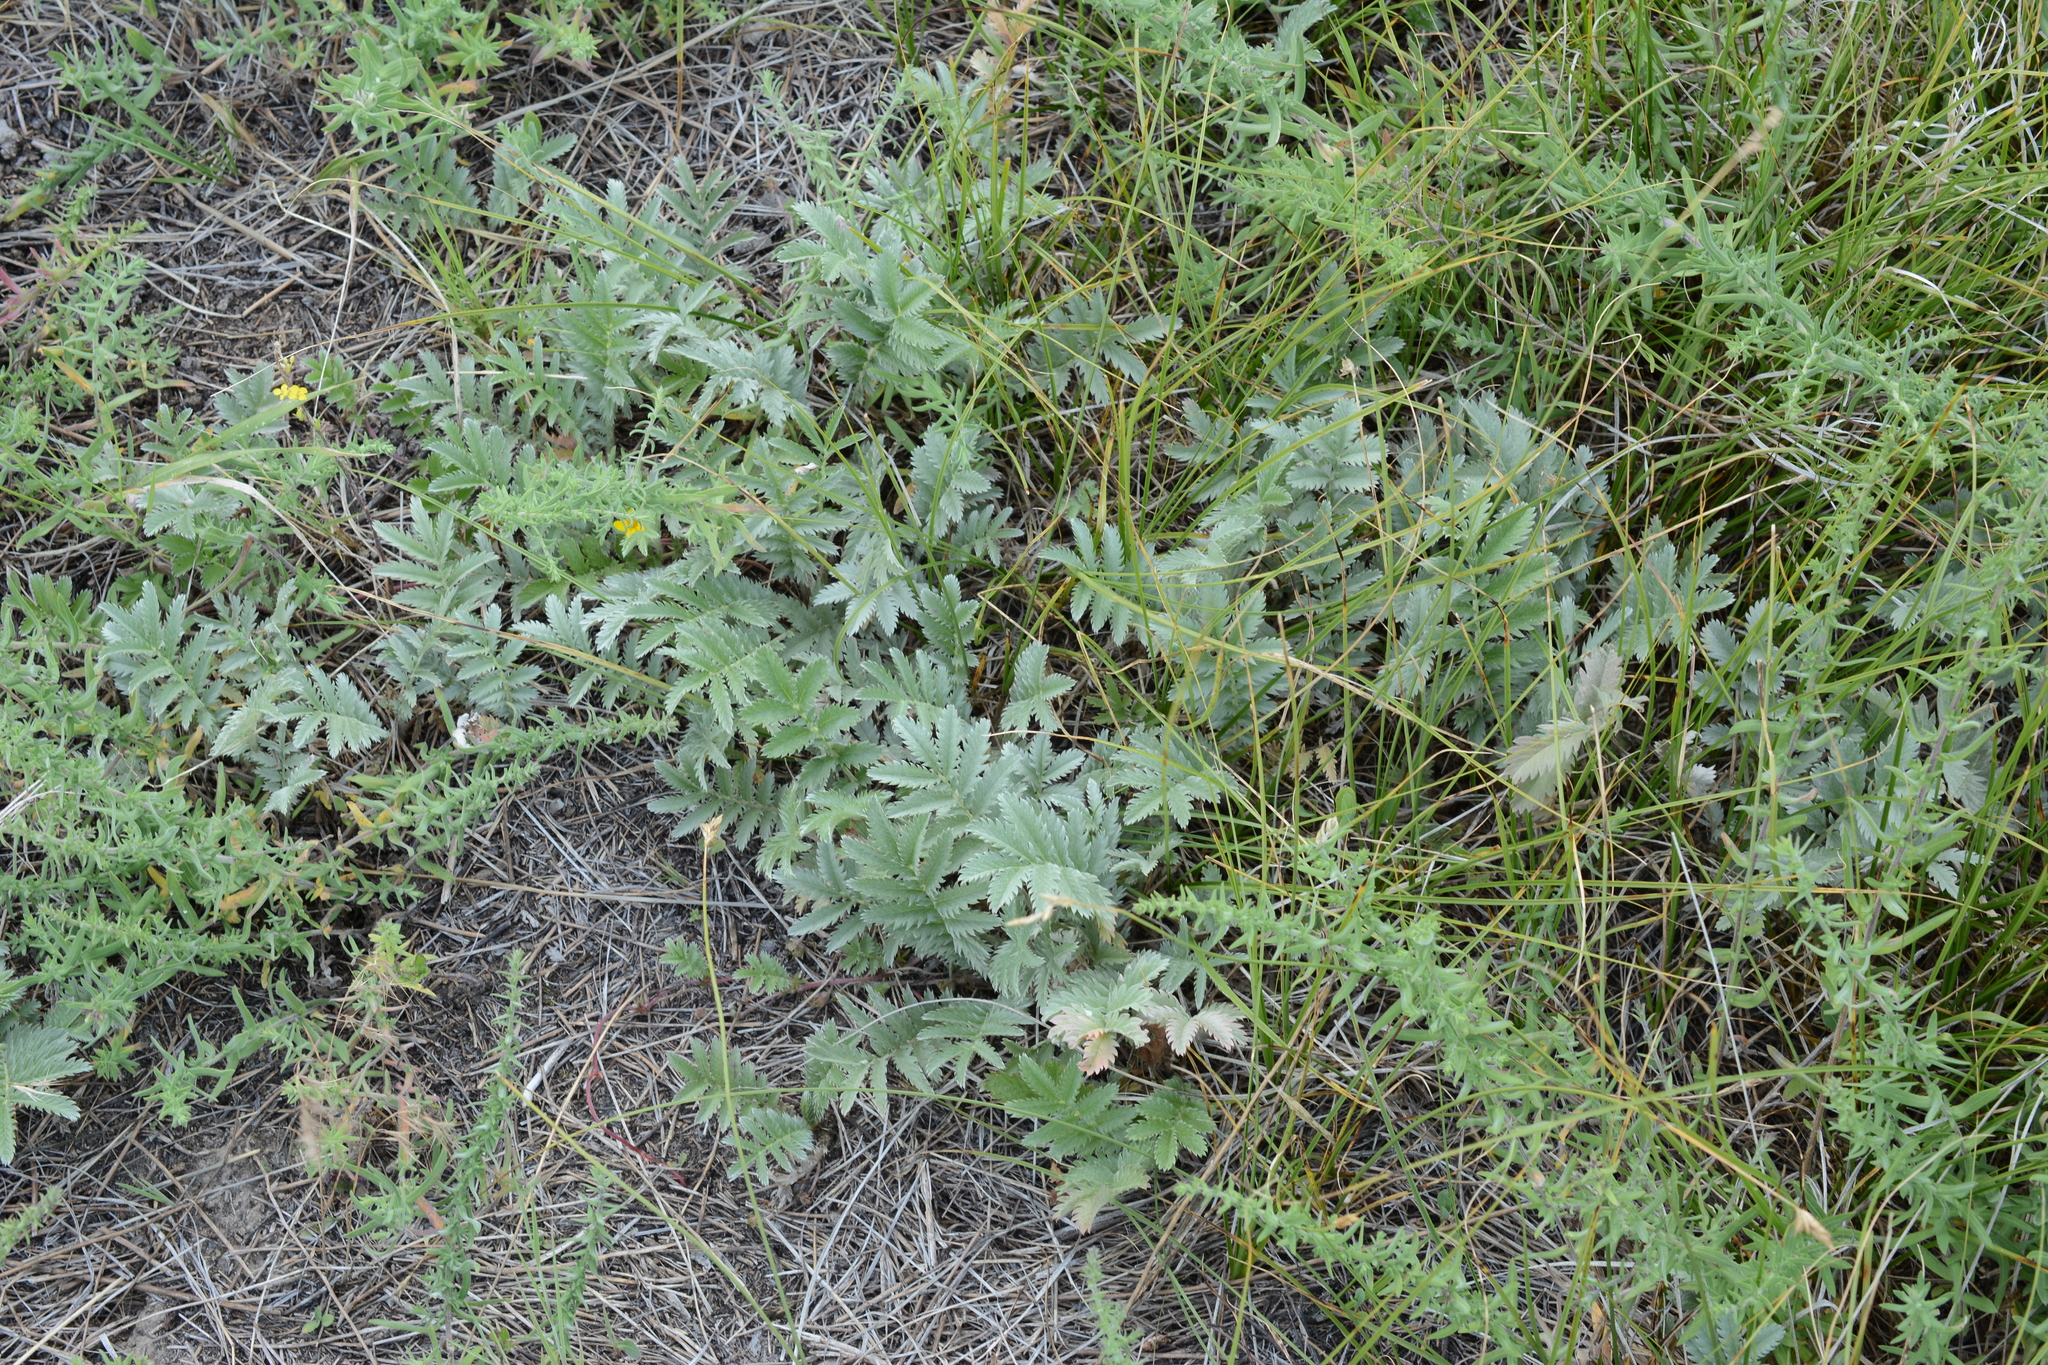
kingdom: Plantae
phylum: Tracheophyta
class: Magnoliopsida
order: Rosales
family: Rosaceae
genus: Argentina
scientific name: Argentina anserina
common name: Common silverweed
